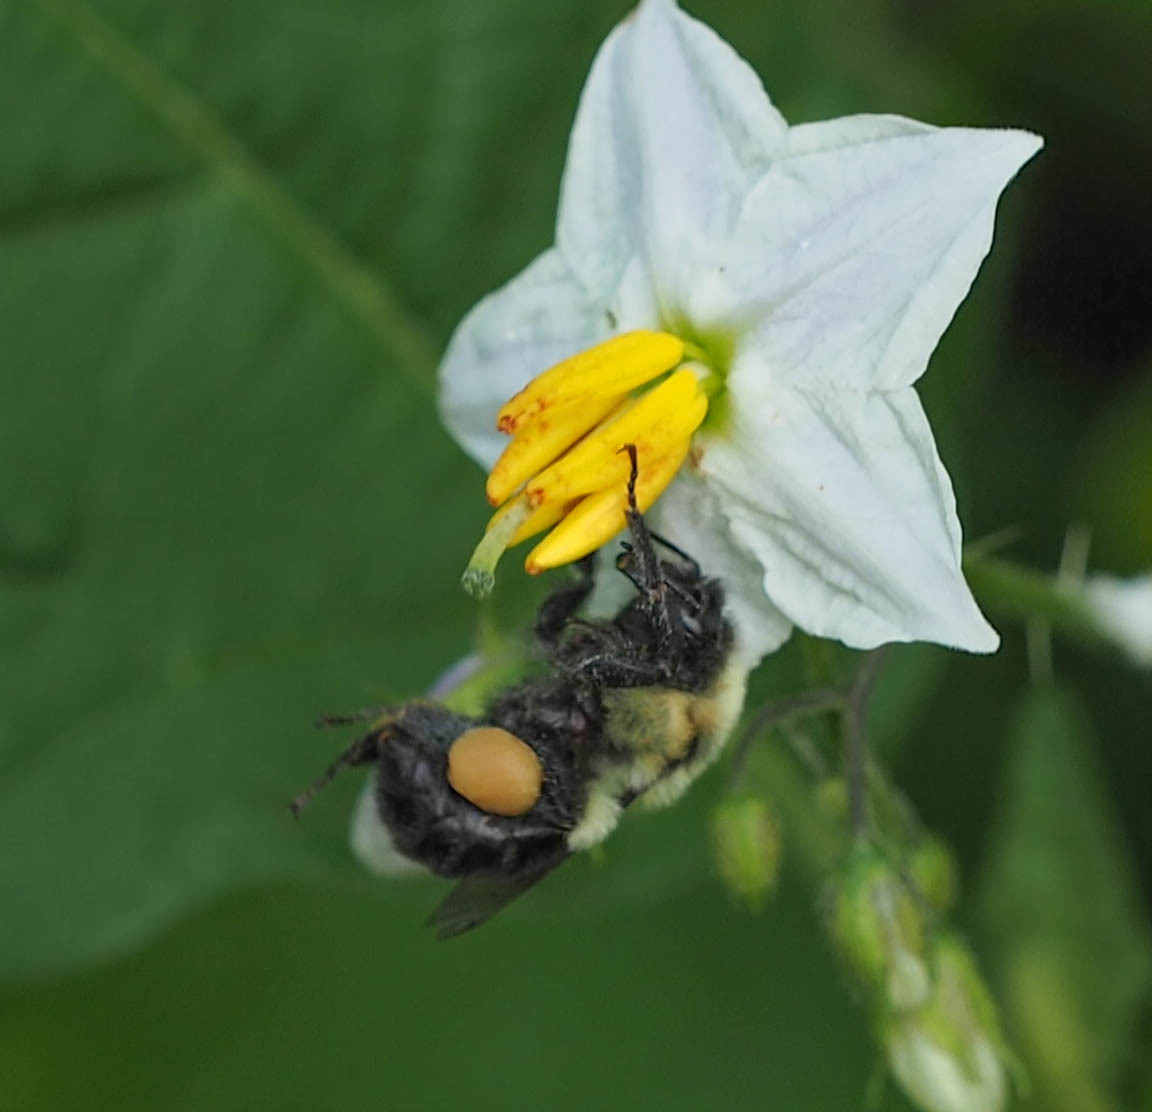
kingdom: Animalia
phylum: Arthropoda
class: Insecta
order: Hymenoptera
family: Apidae
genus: Bombus
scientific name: Bombus impatiens
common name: Common eastern bumble bee
